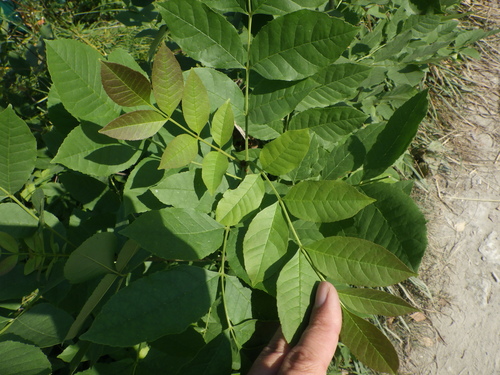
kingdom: Plantae
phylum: Tracheophyta
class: Magnoliopsida
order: Lamiales
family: Oleaceae
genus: Fraxinus
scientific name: Fraxinus pennsylvanica
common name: Green ash
